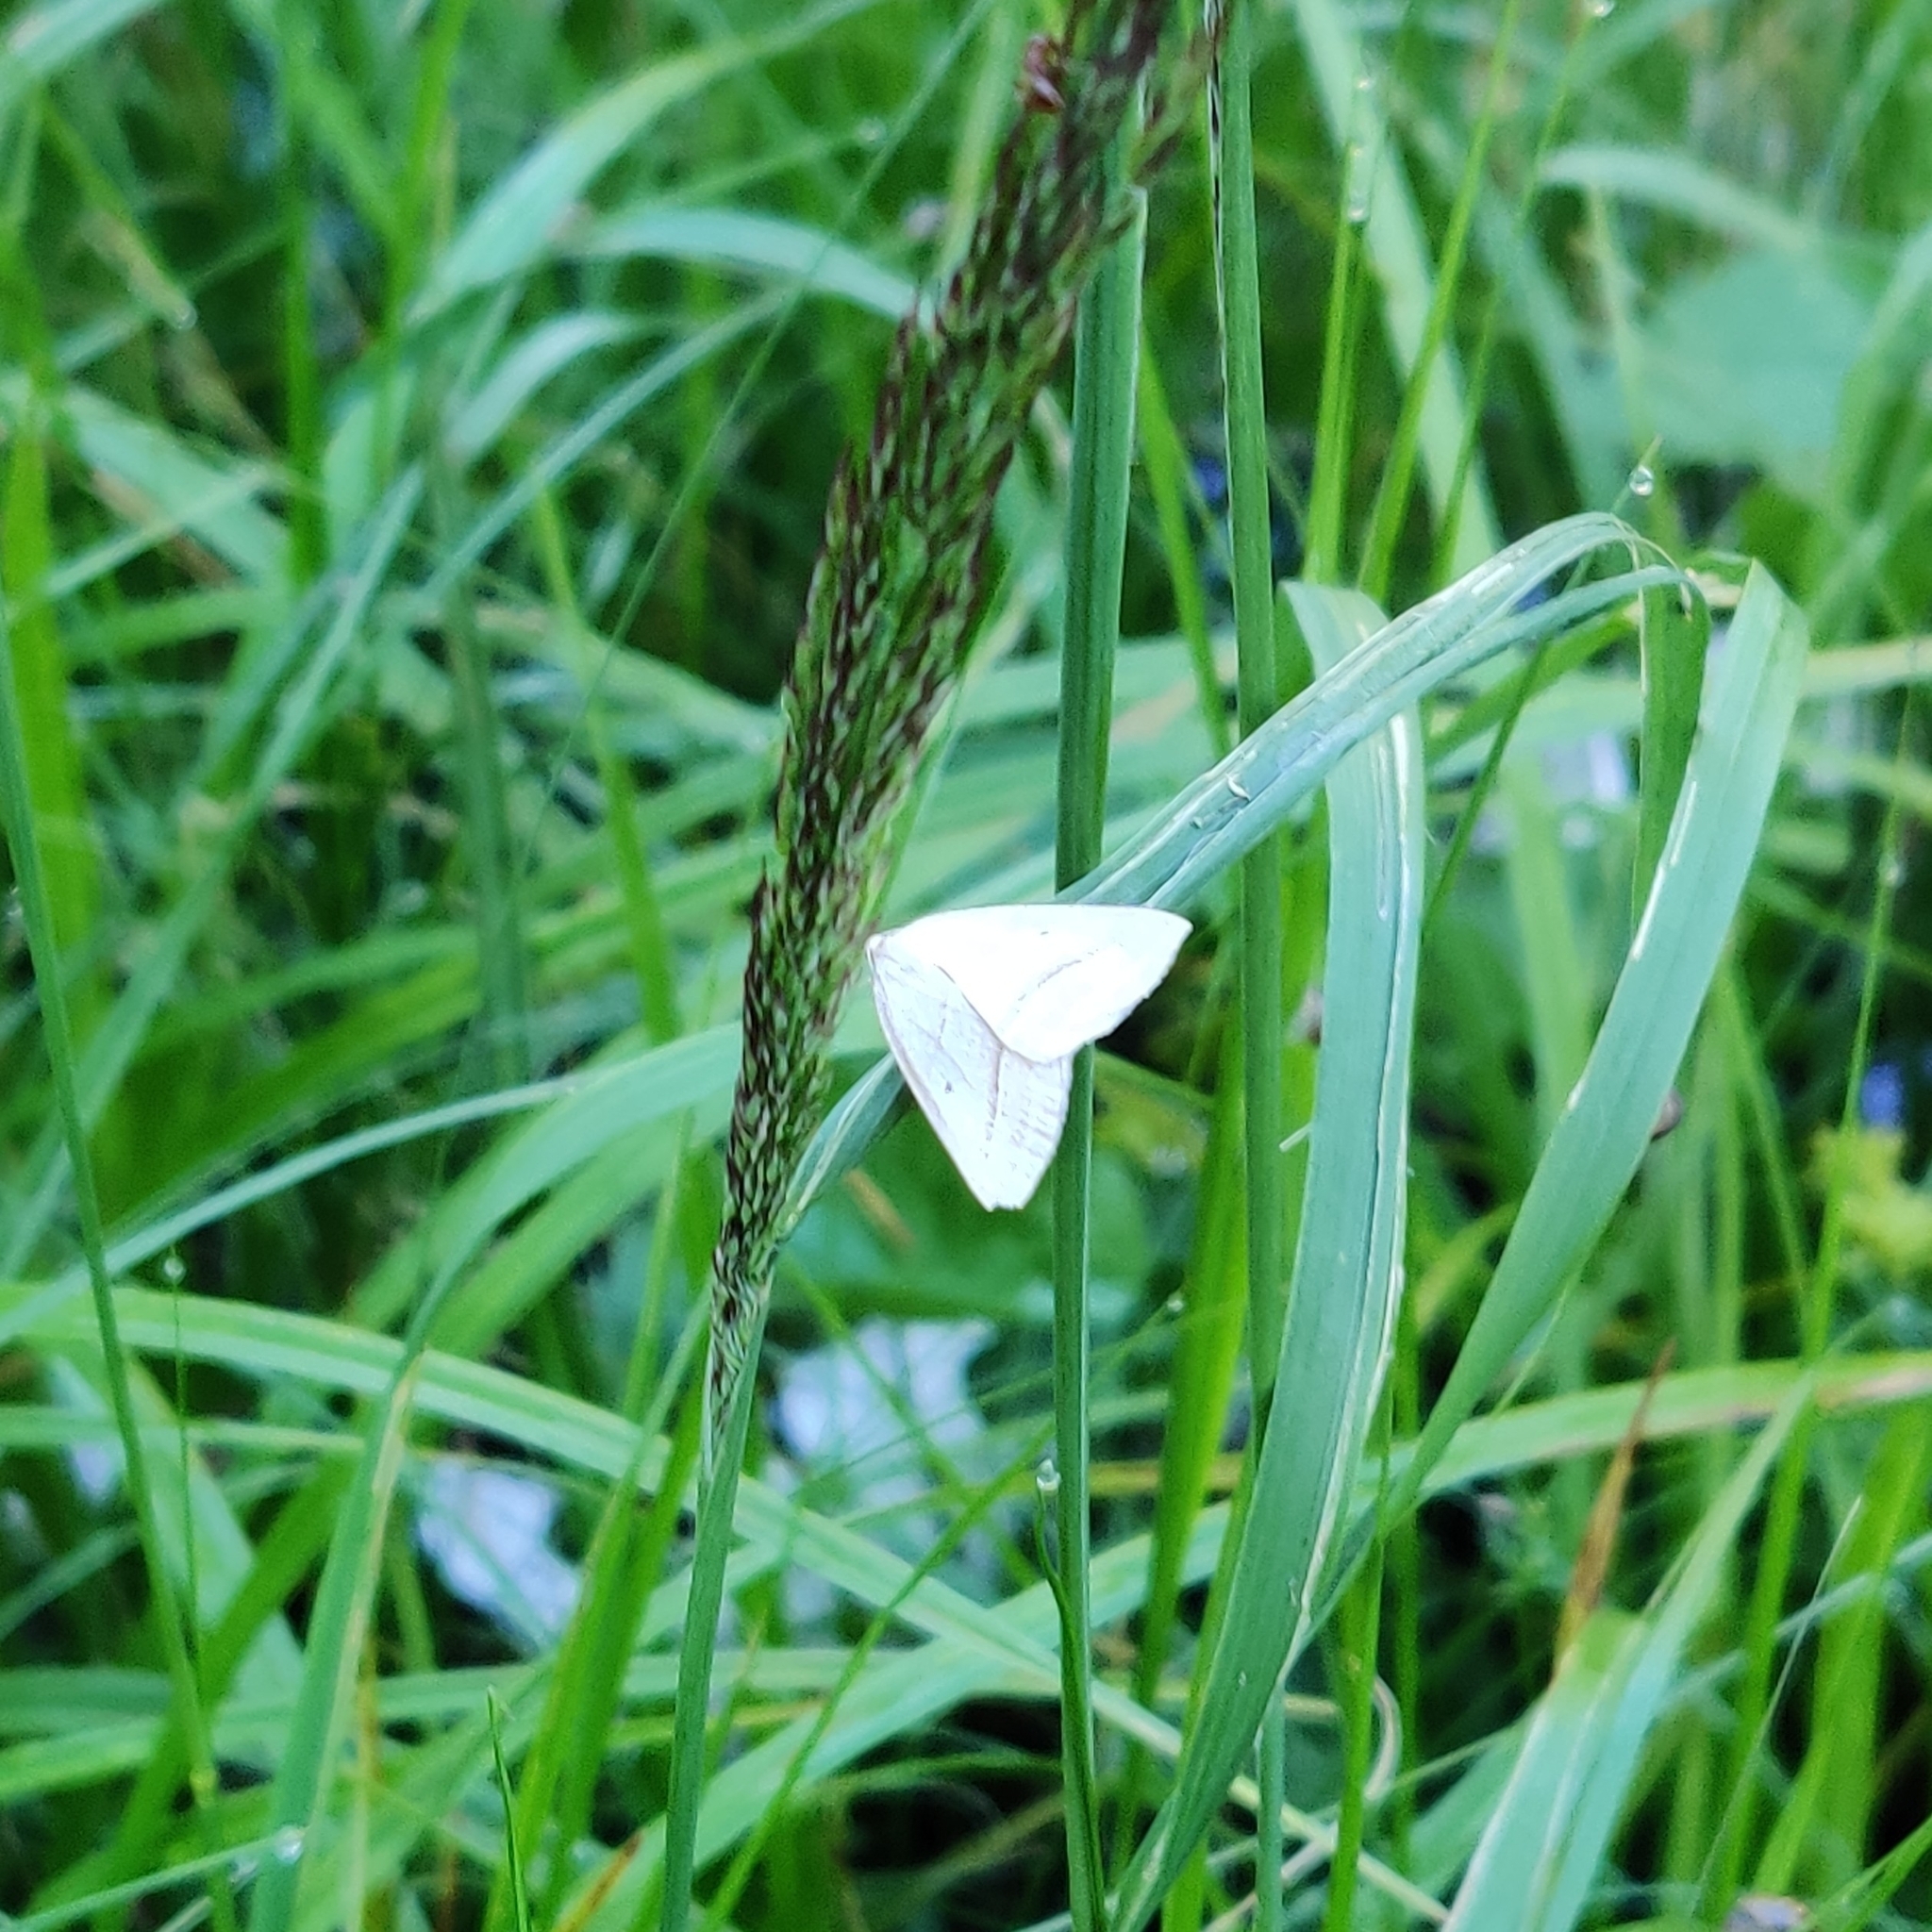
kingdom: Animalia
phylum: Arthropoda
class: Insecta
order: Lepidoptera
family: Pterophoridae
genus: Pterophorus
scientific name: Pterophorus Petrophora chlorosata
